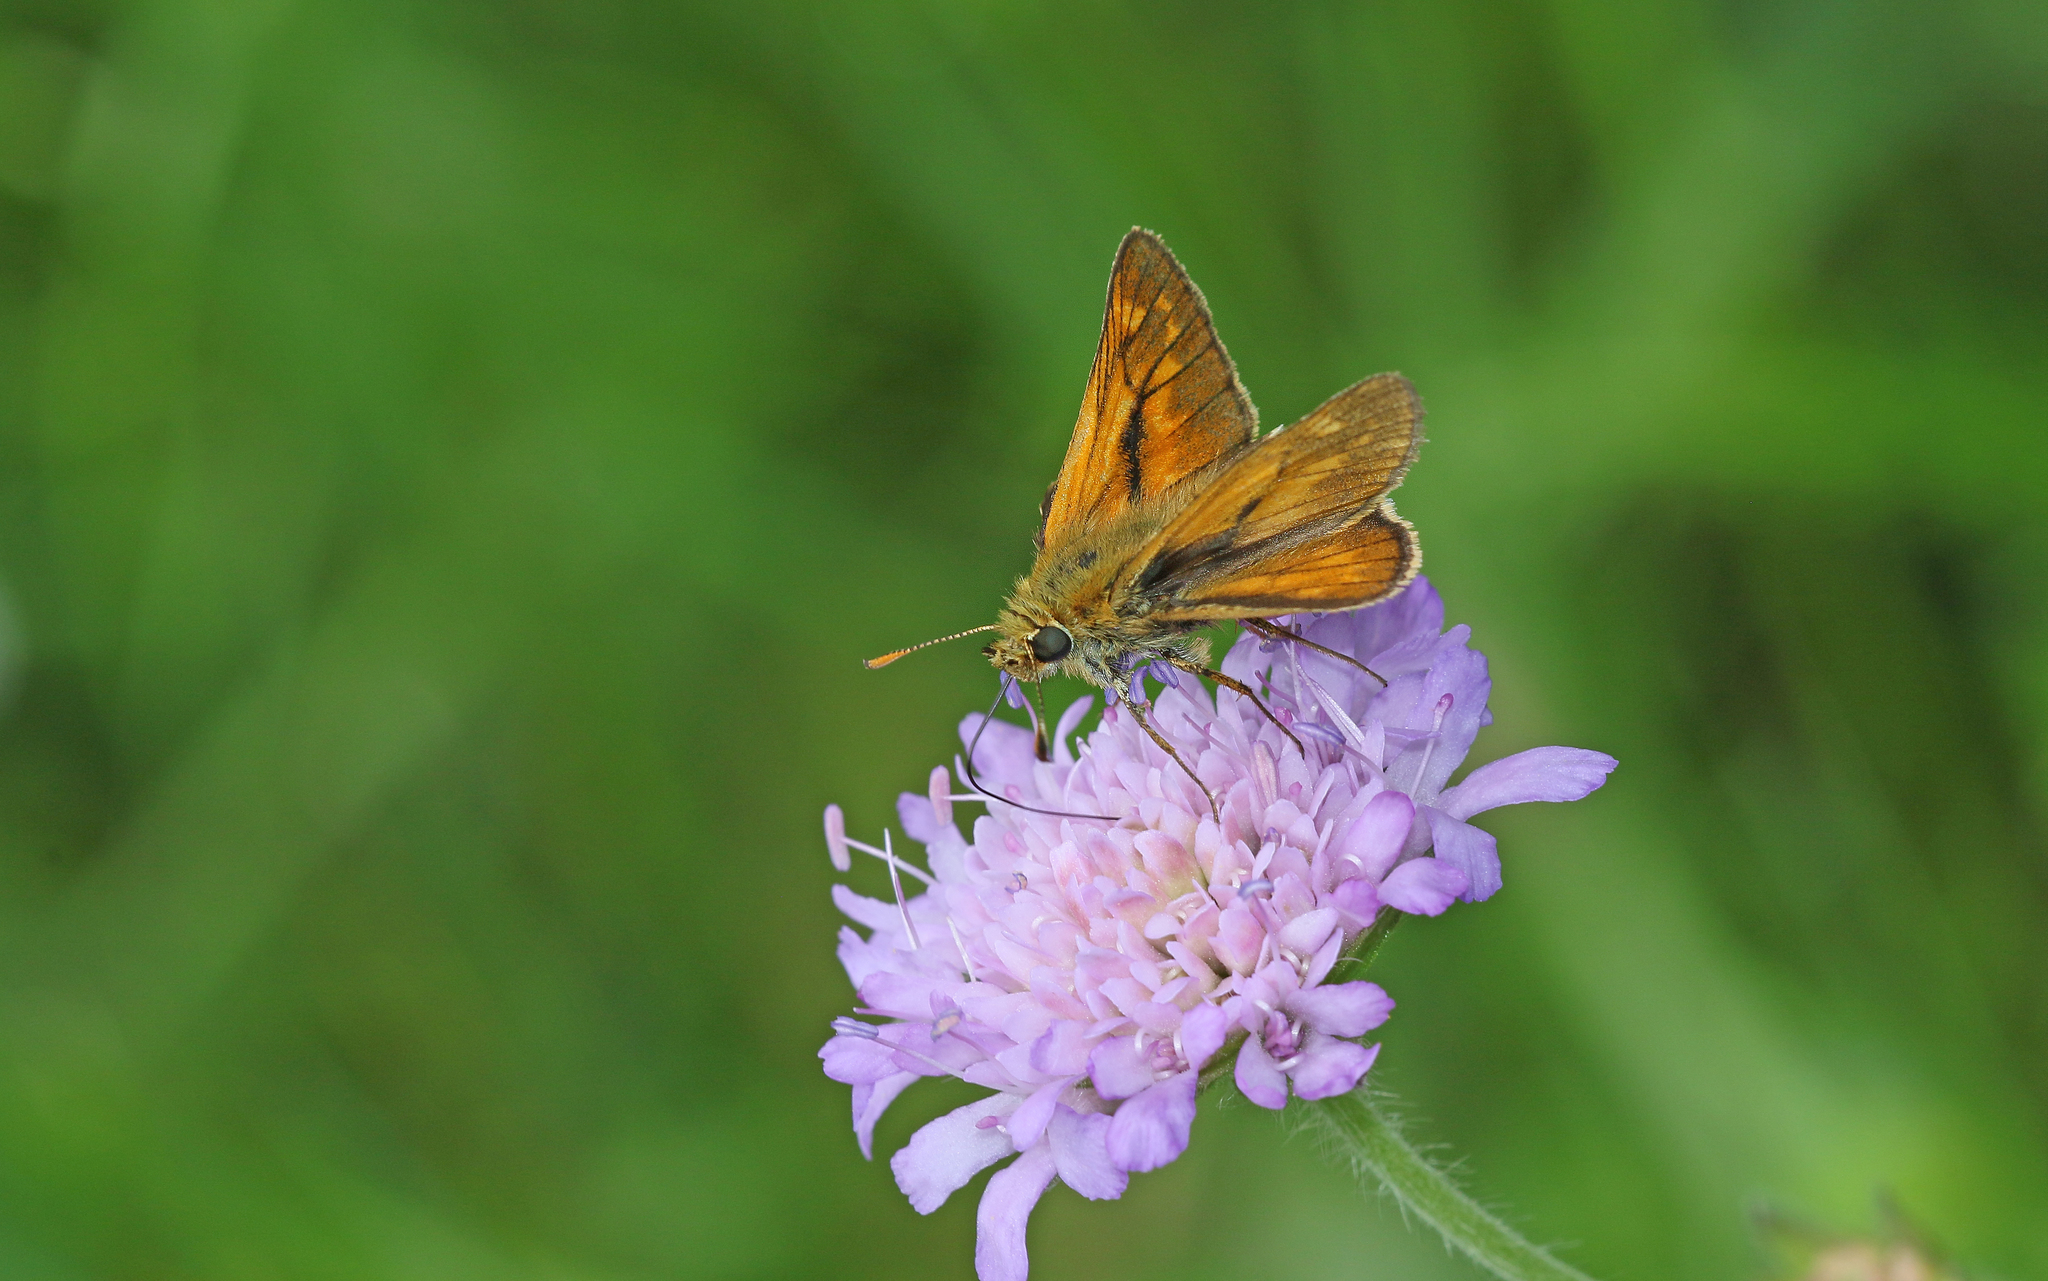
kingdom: Animalia
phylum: Arthropoda
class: Insecta
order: Lepidoptera
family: Hesperiidae
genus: Ochlodes
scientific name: Ochlodes venata
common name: Large skipper
